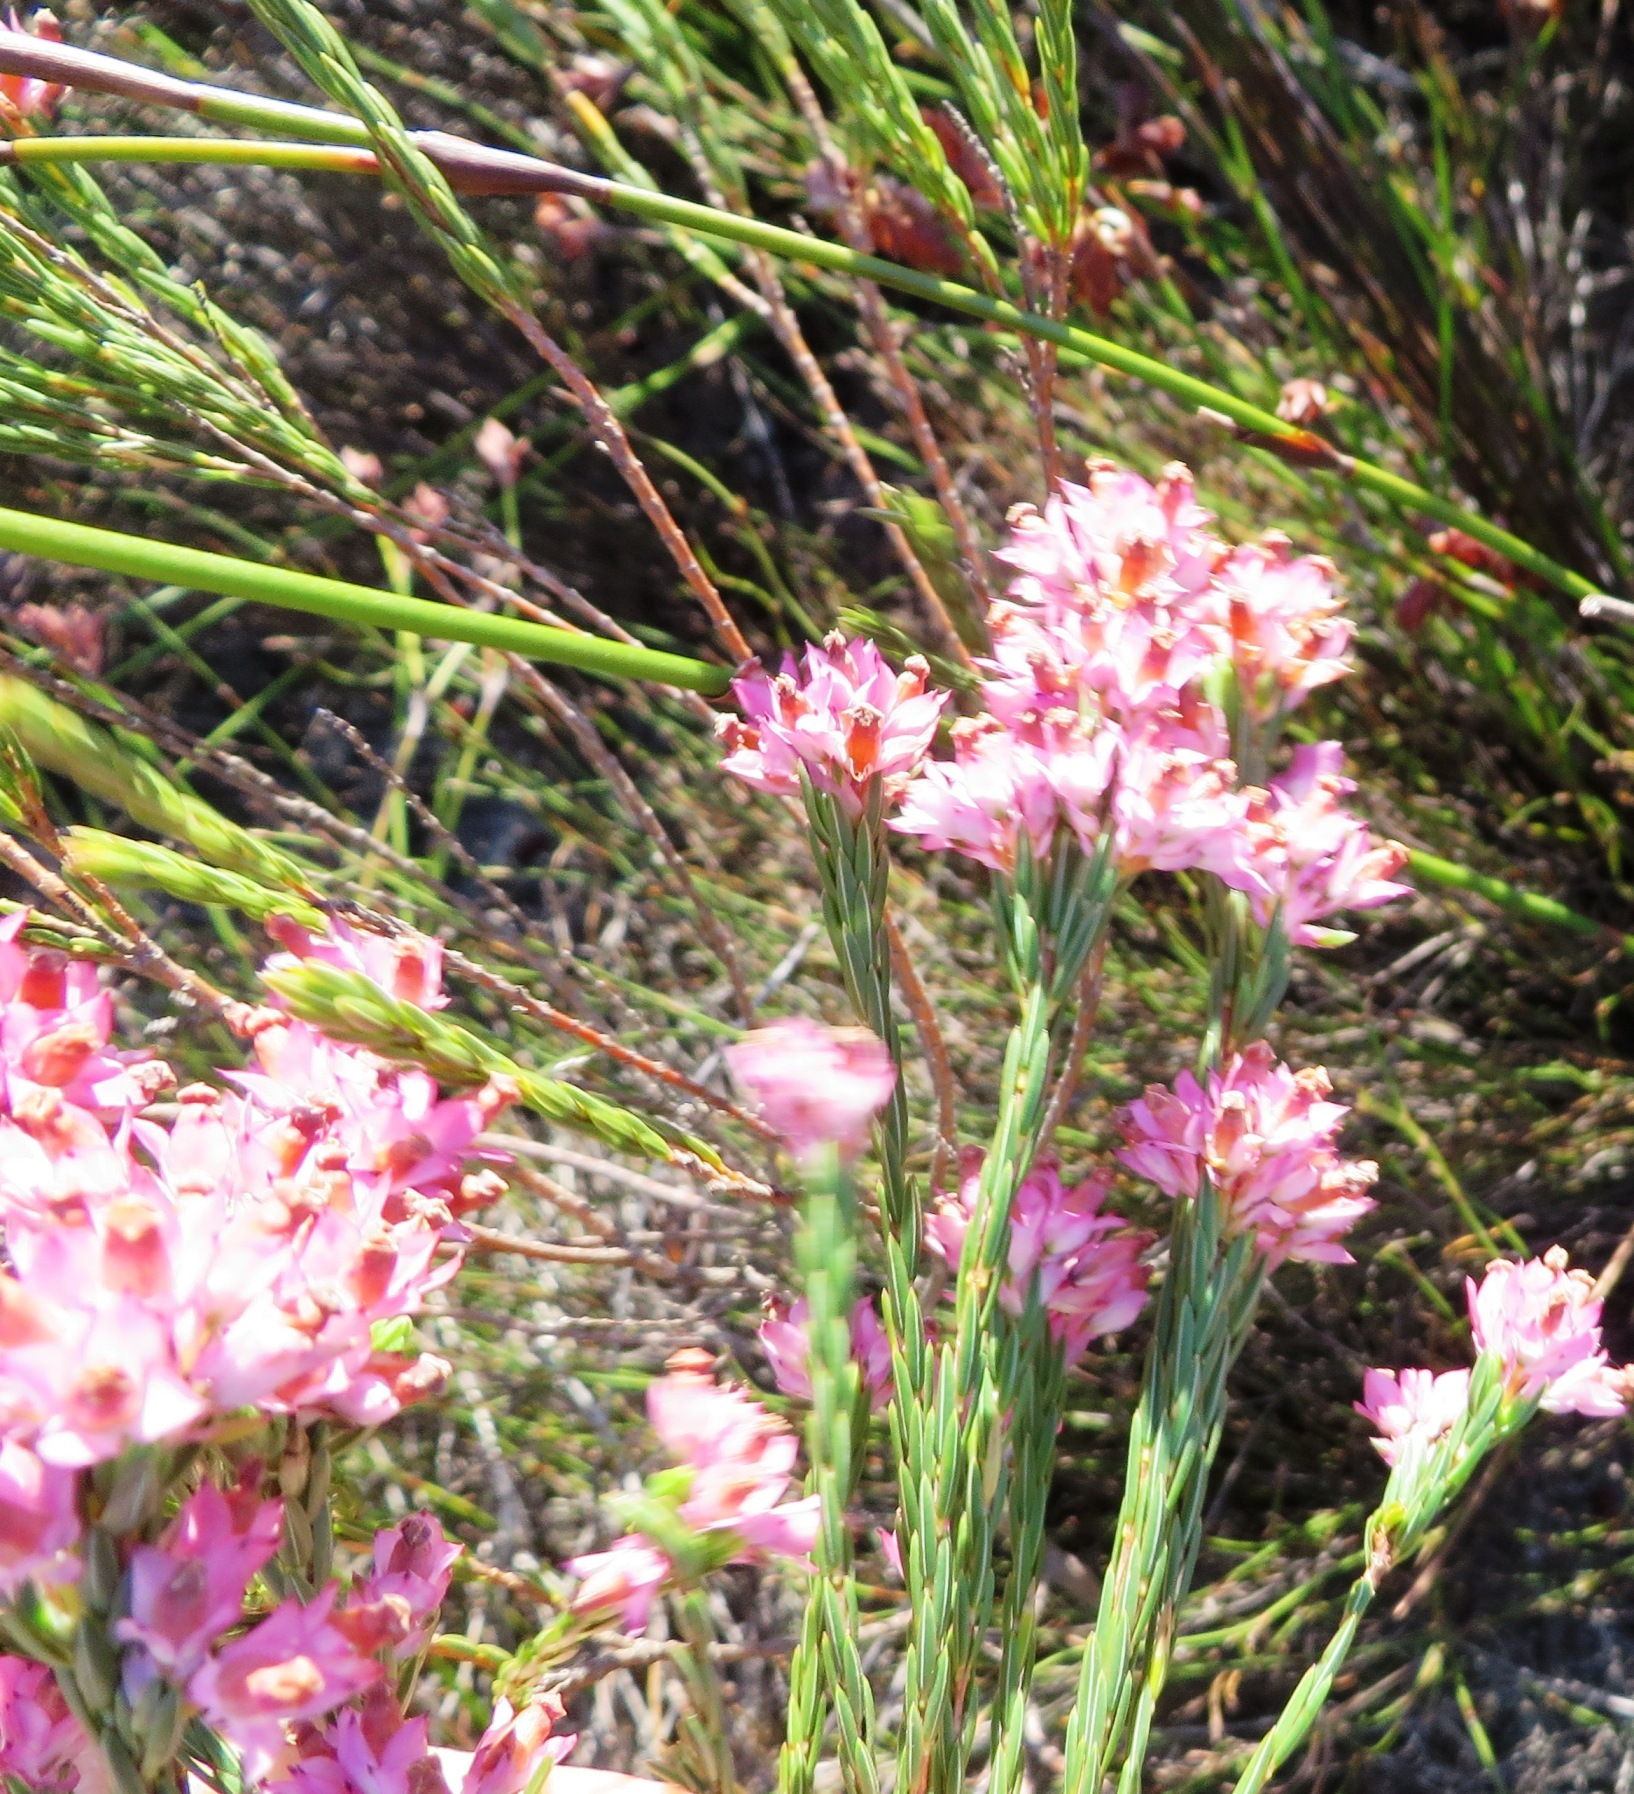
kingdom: Plantae
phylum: Tracheophyta
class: Magnoliopsida
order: Ericales
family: Ericaceae
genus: Erica
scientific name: Erica corifolia
